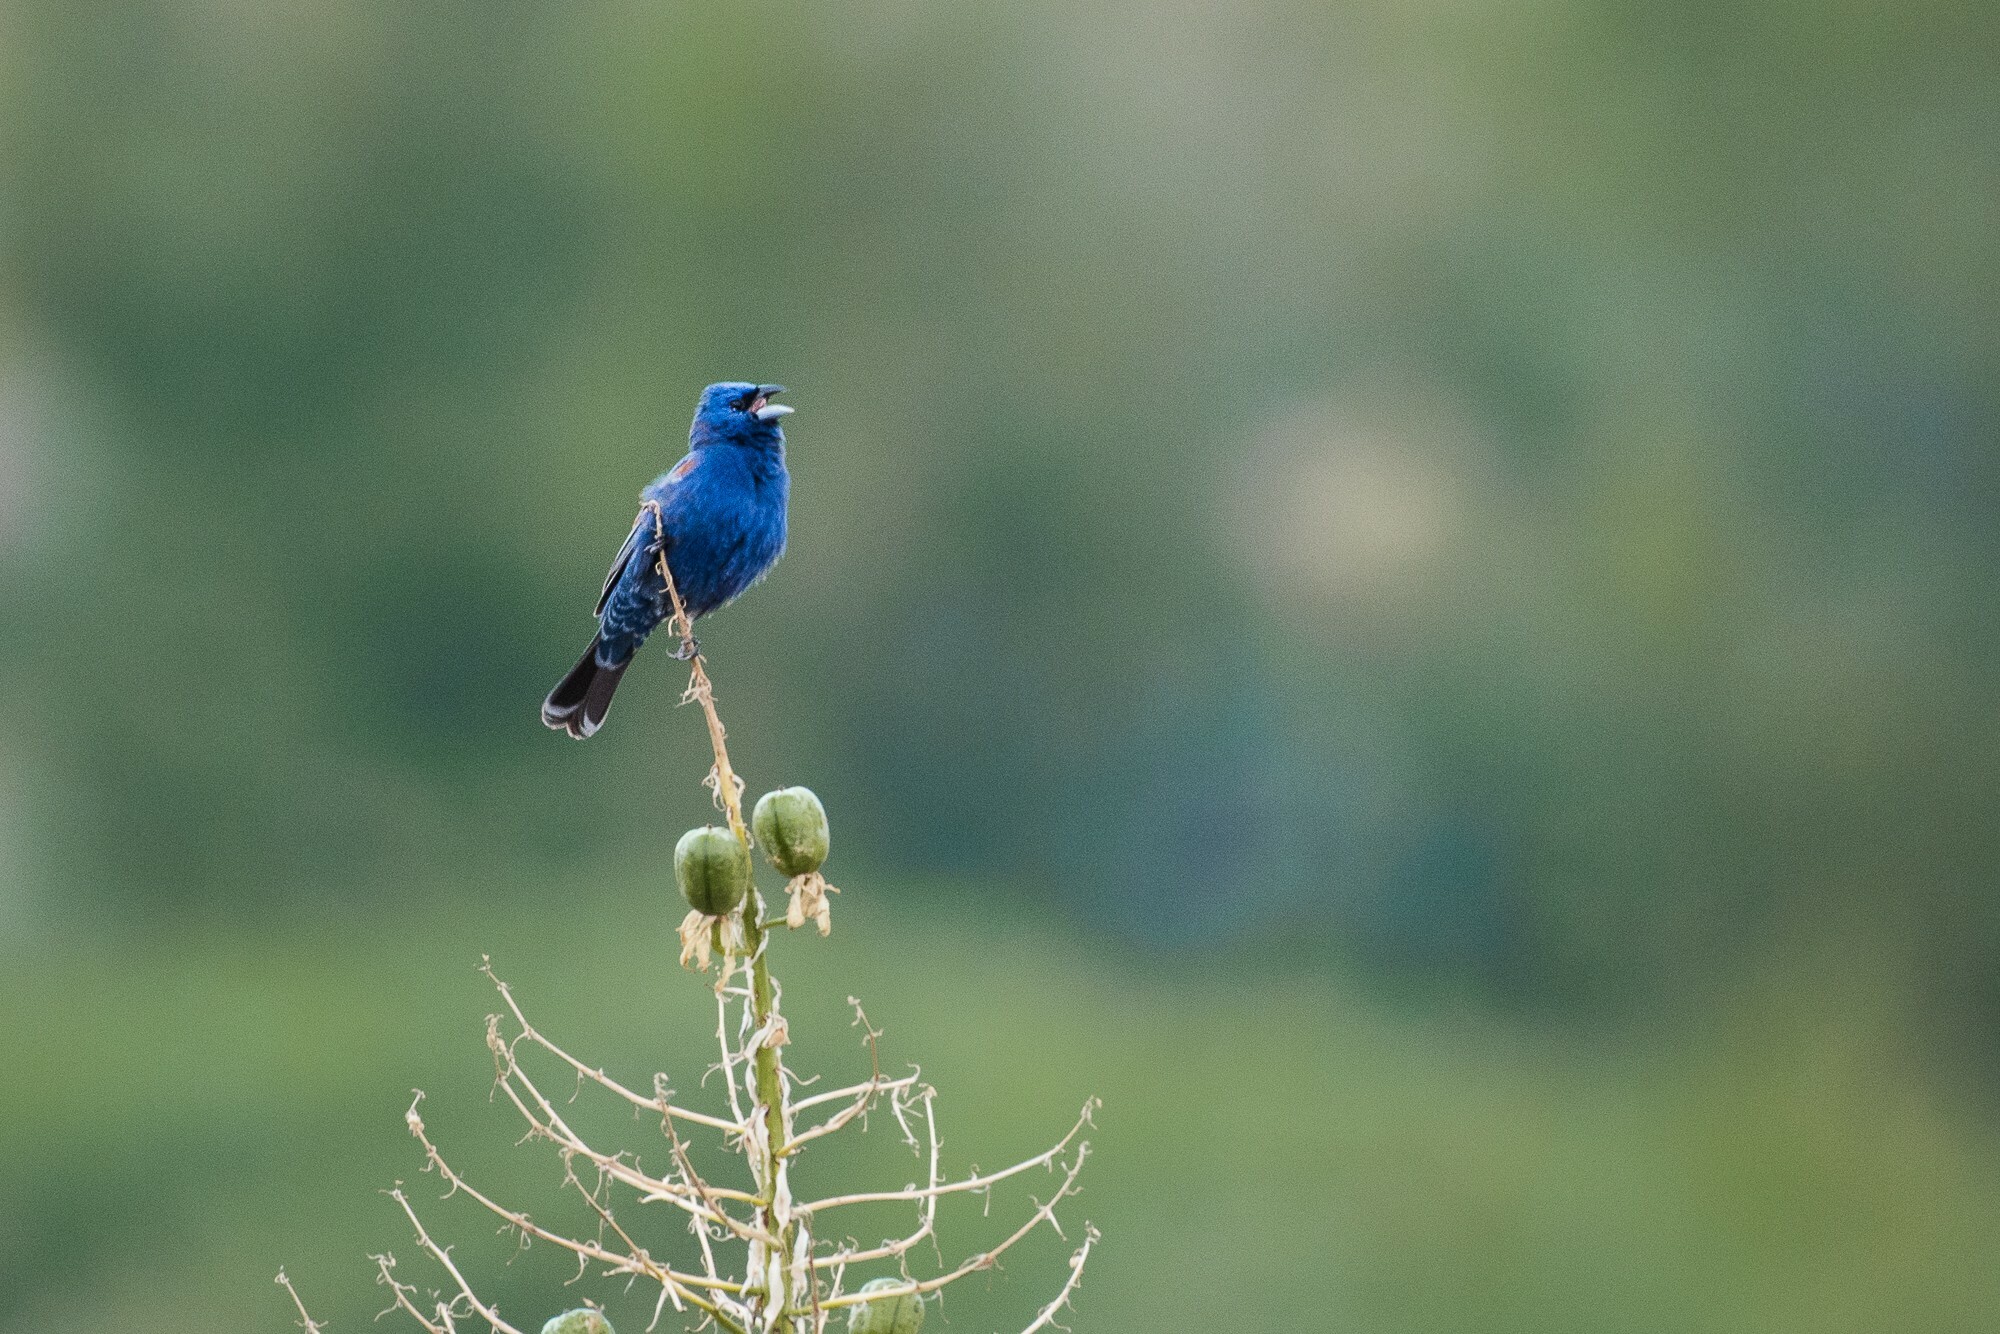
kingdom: Animalia
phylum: Chordata
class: Aves
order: Passeriformes
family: Cardinalidae
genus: Passerina
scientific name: Passerina caerulea
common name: Blue grosbeak
